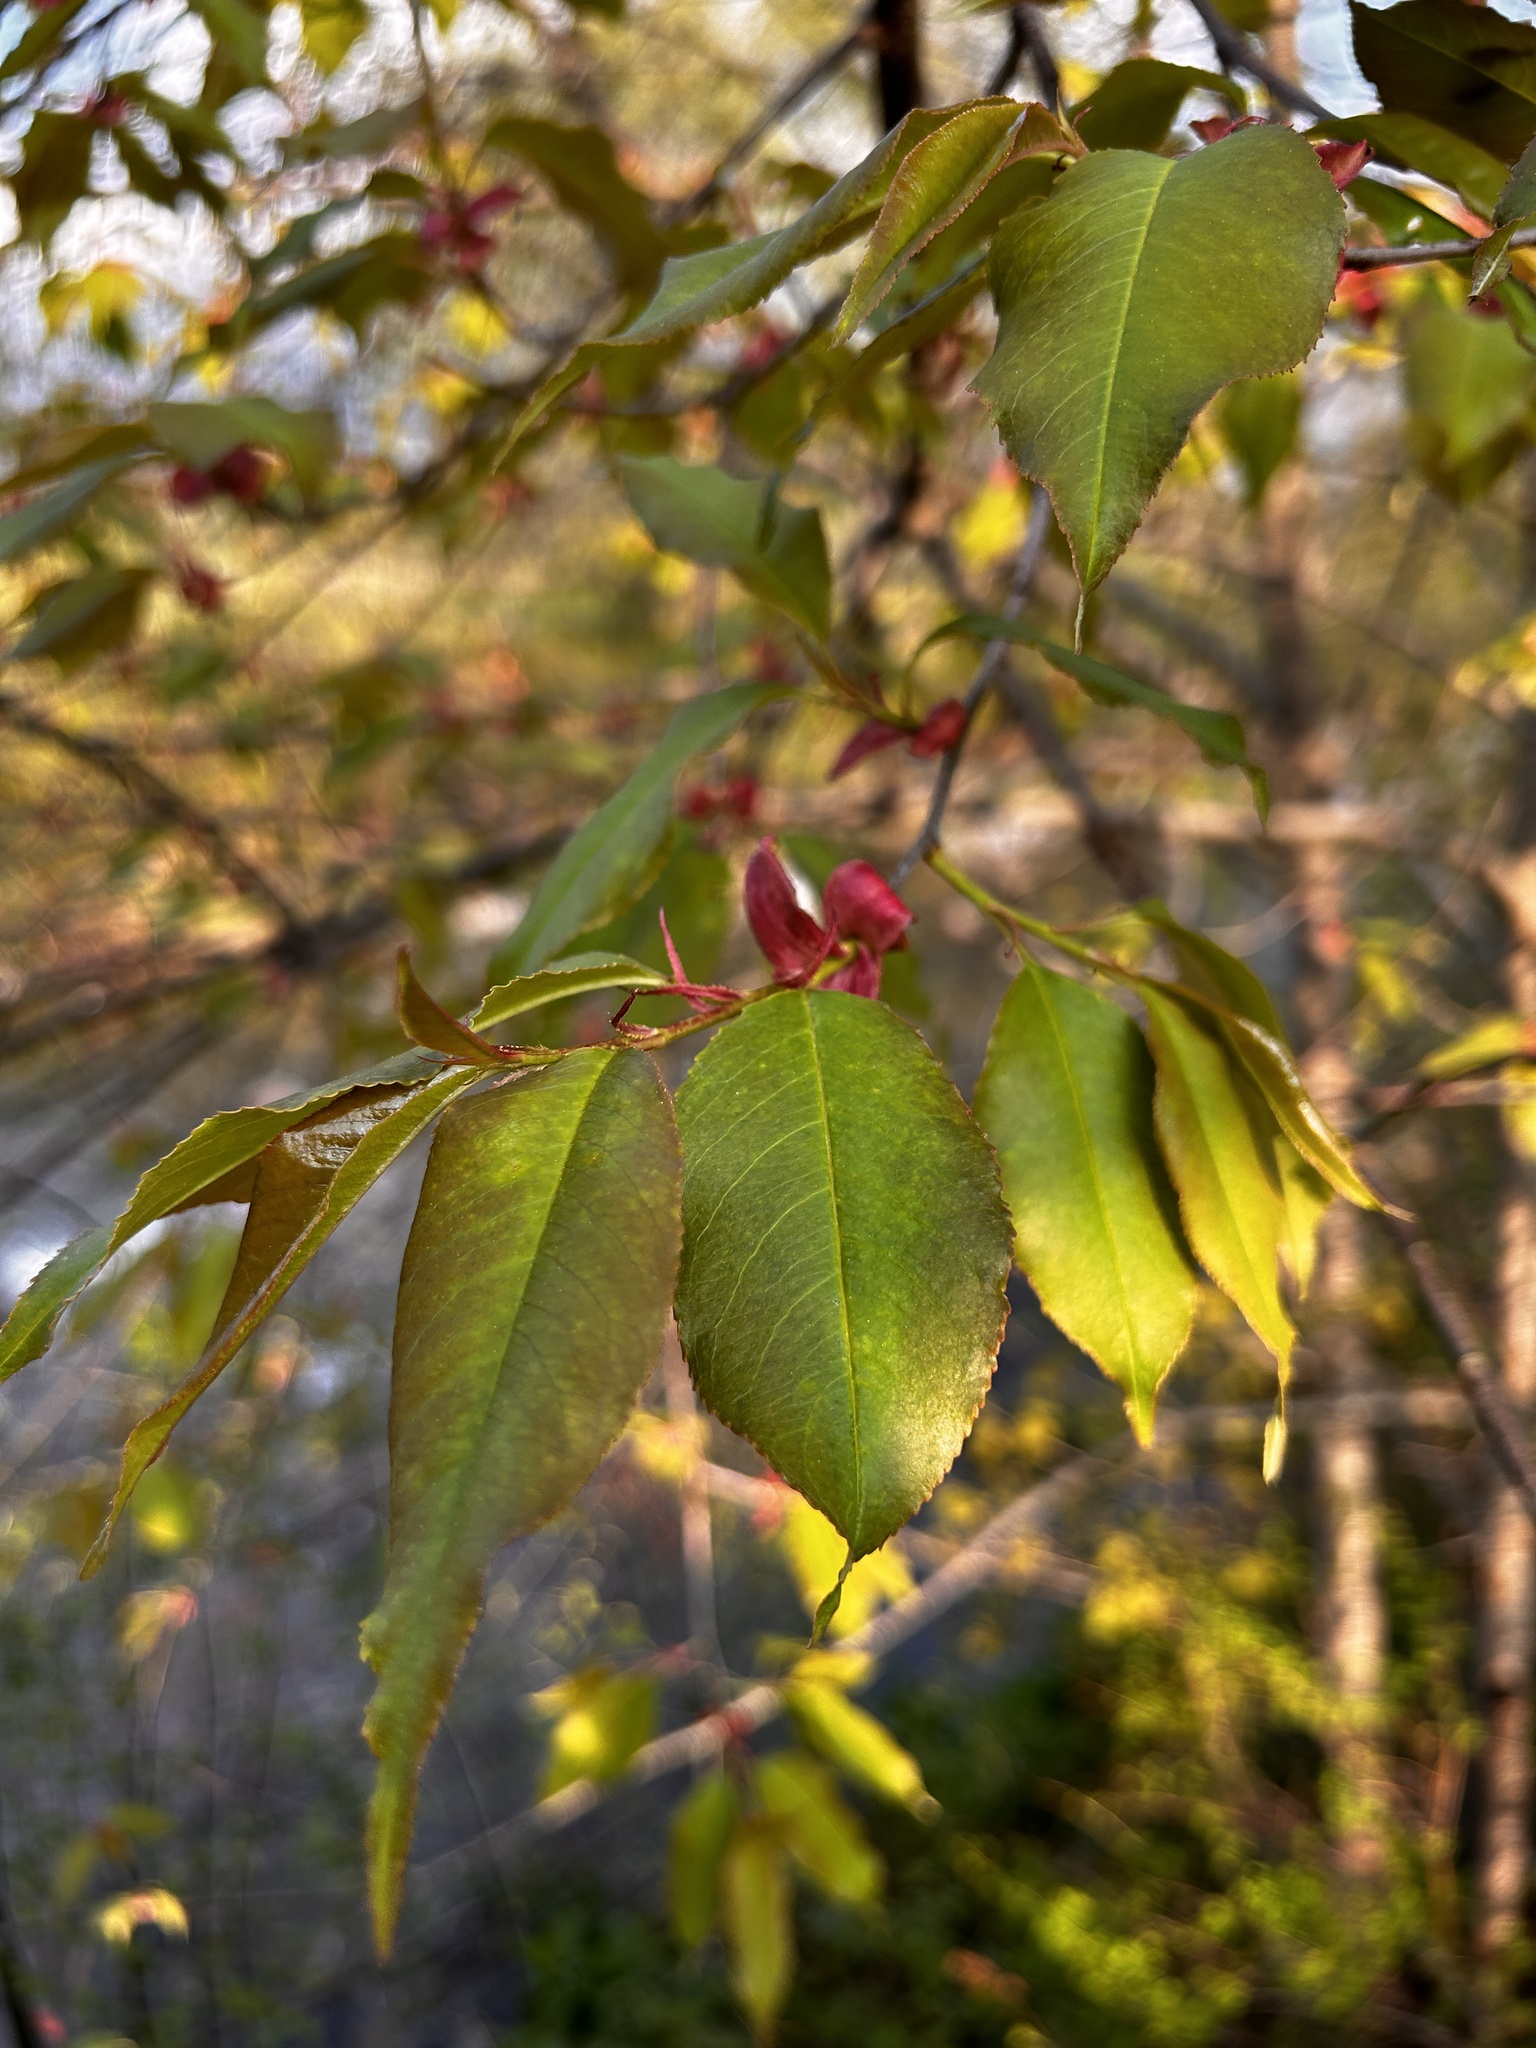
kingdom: Plantae
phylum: Tracheophyta
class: Magnoliopsida
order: Rosales
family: Rosaceae
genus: Prunus
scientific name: Prunus serotina
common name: Black cherry
